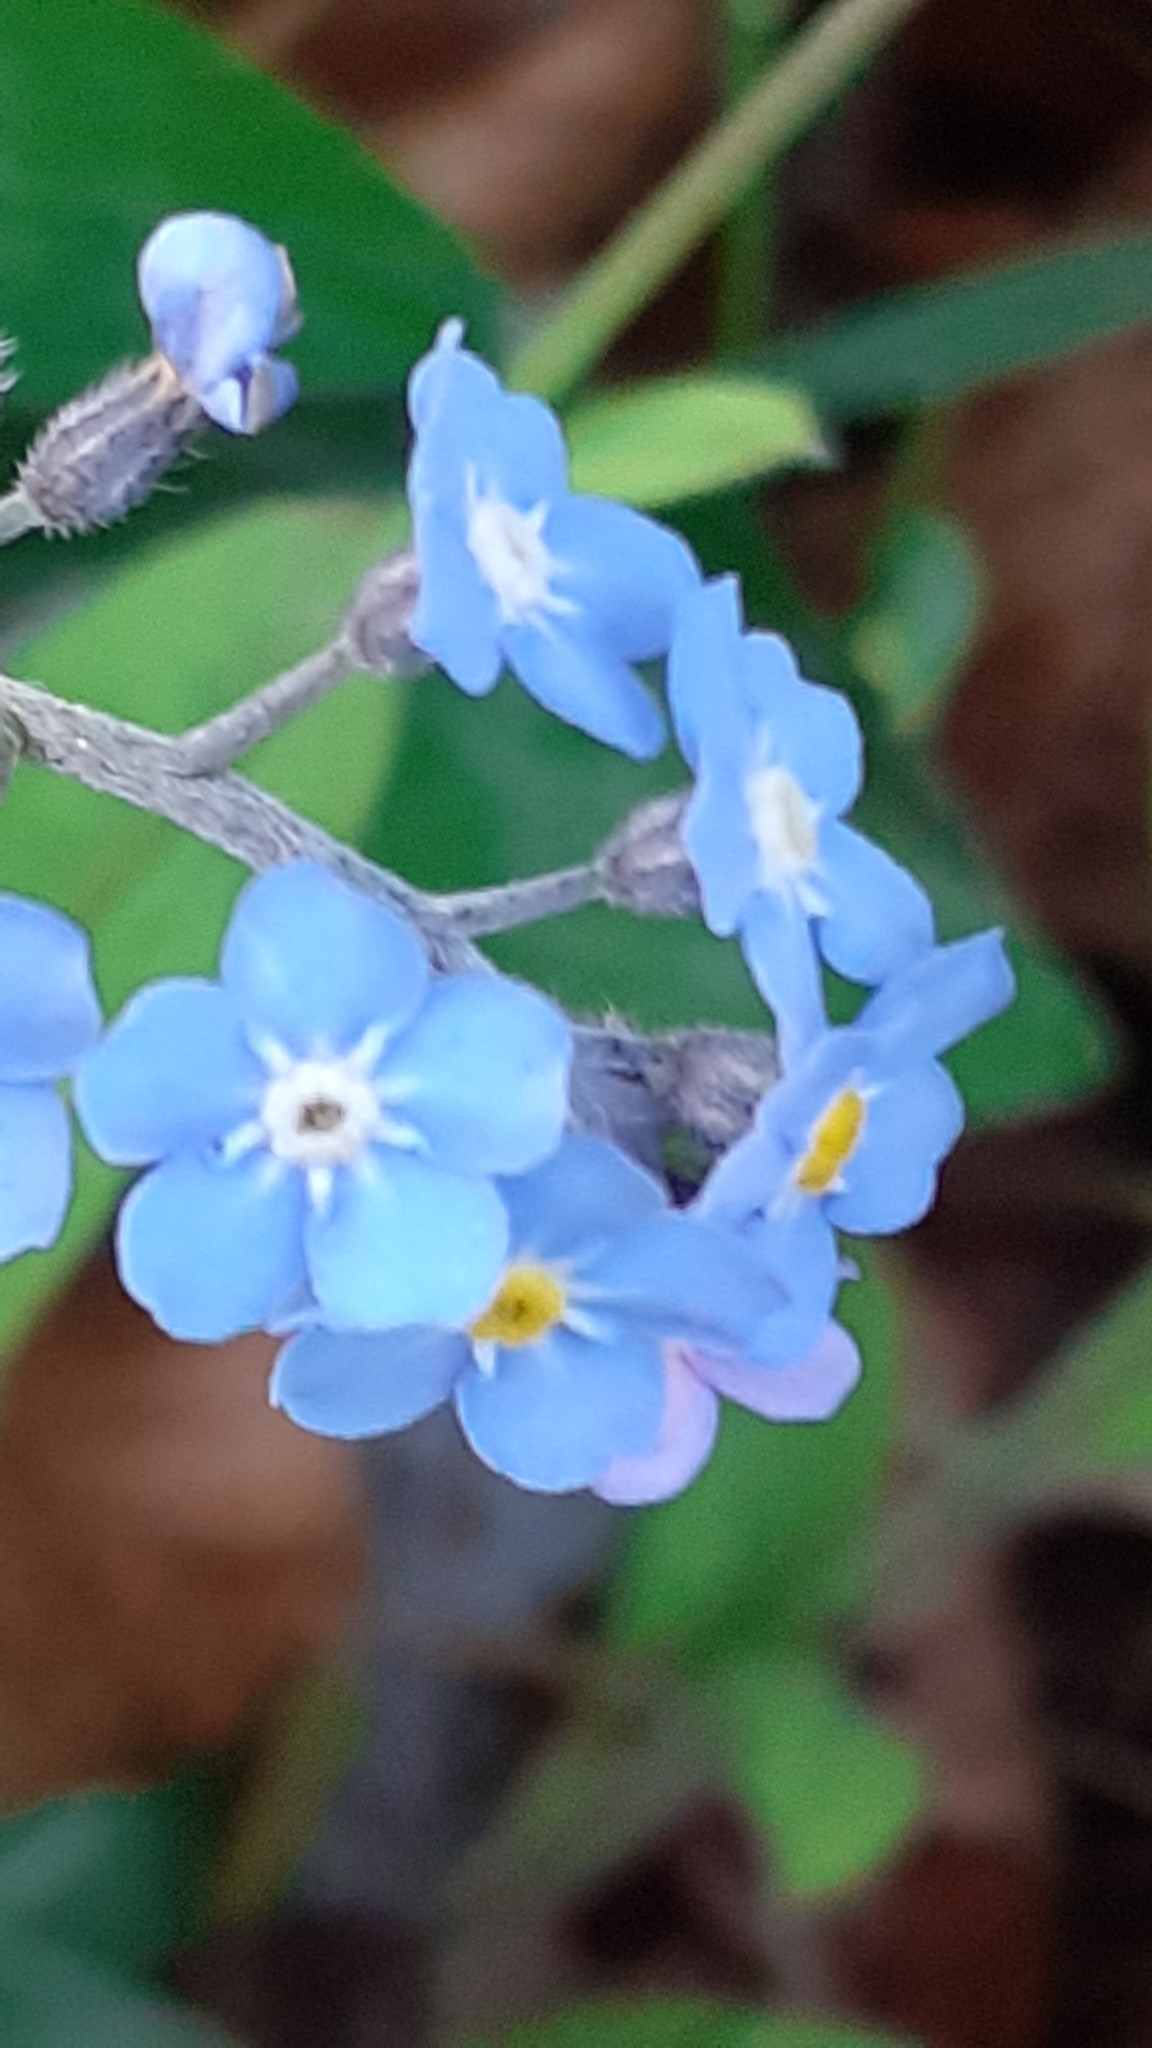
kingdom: Plantae
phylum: Tracheophyta
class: Magnoliopsida
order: Boraginales
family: Boraginaceae
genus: Myosotis
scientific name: Myosotis sylvatica
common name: Wood forget-me-not
